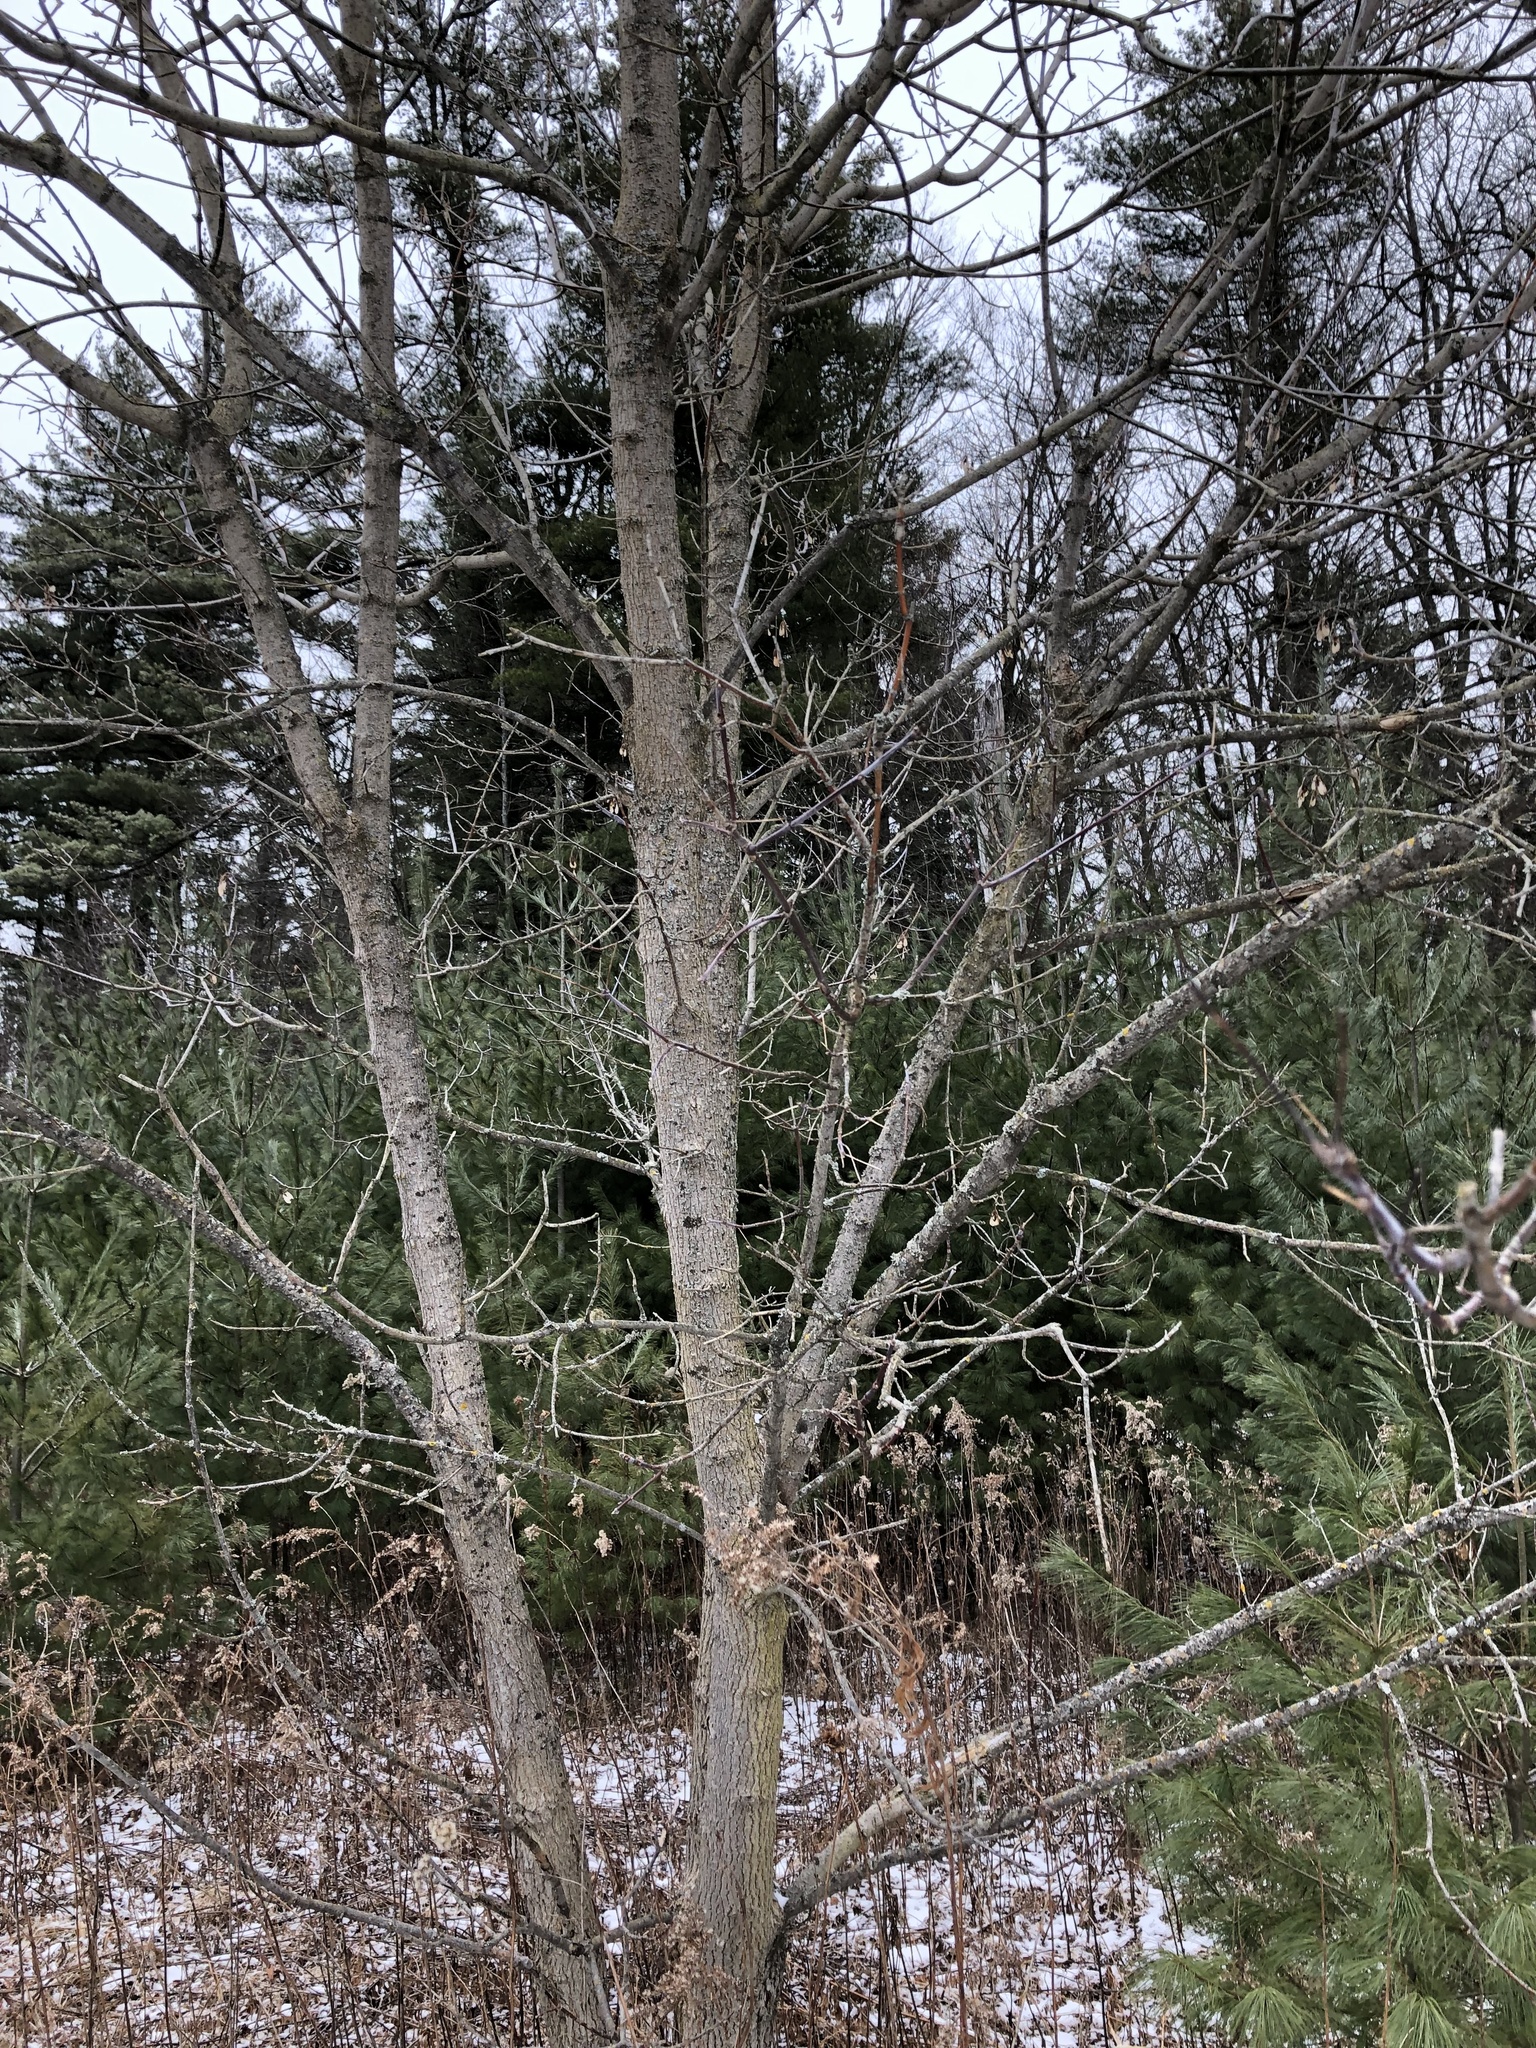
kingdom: Plantae
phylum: Tracheophyta
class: Magnoliopsida
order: Sapindales
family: Sapindaceae
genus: Acer
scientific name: Acer negundo
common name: Ashleaf maple
